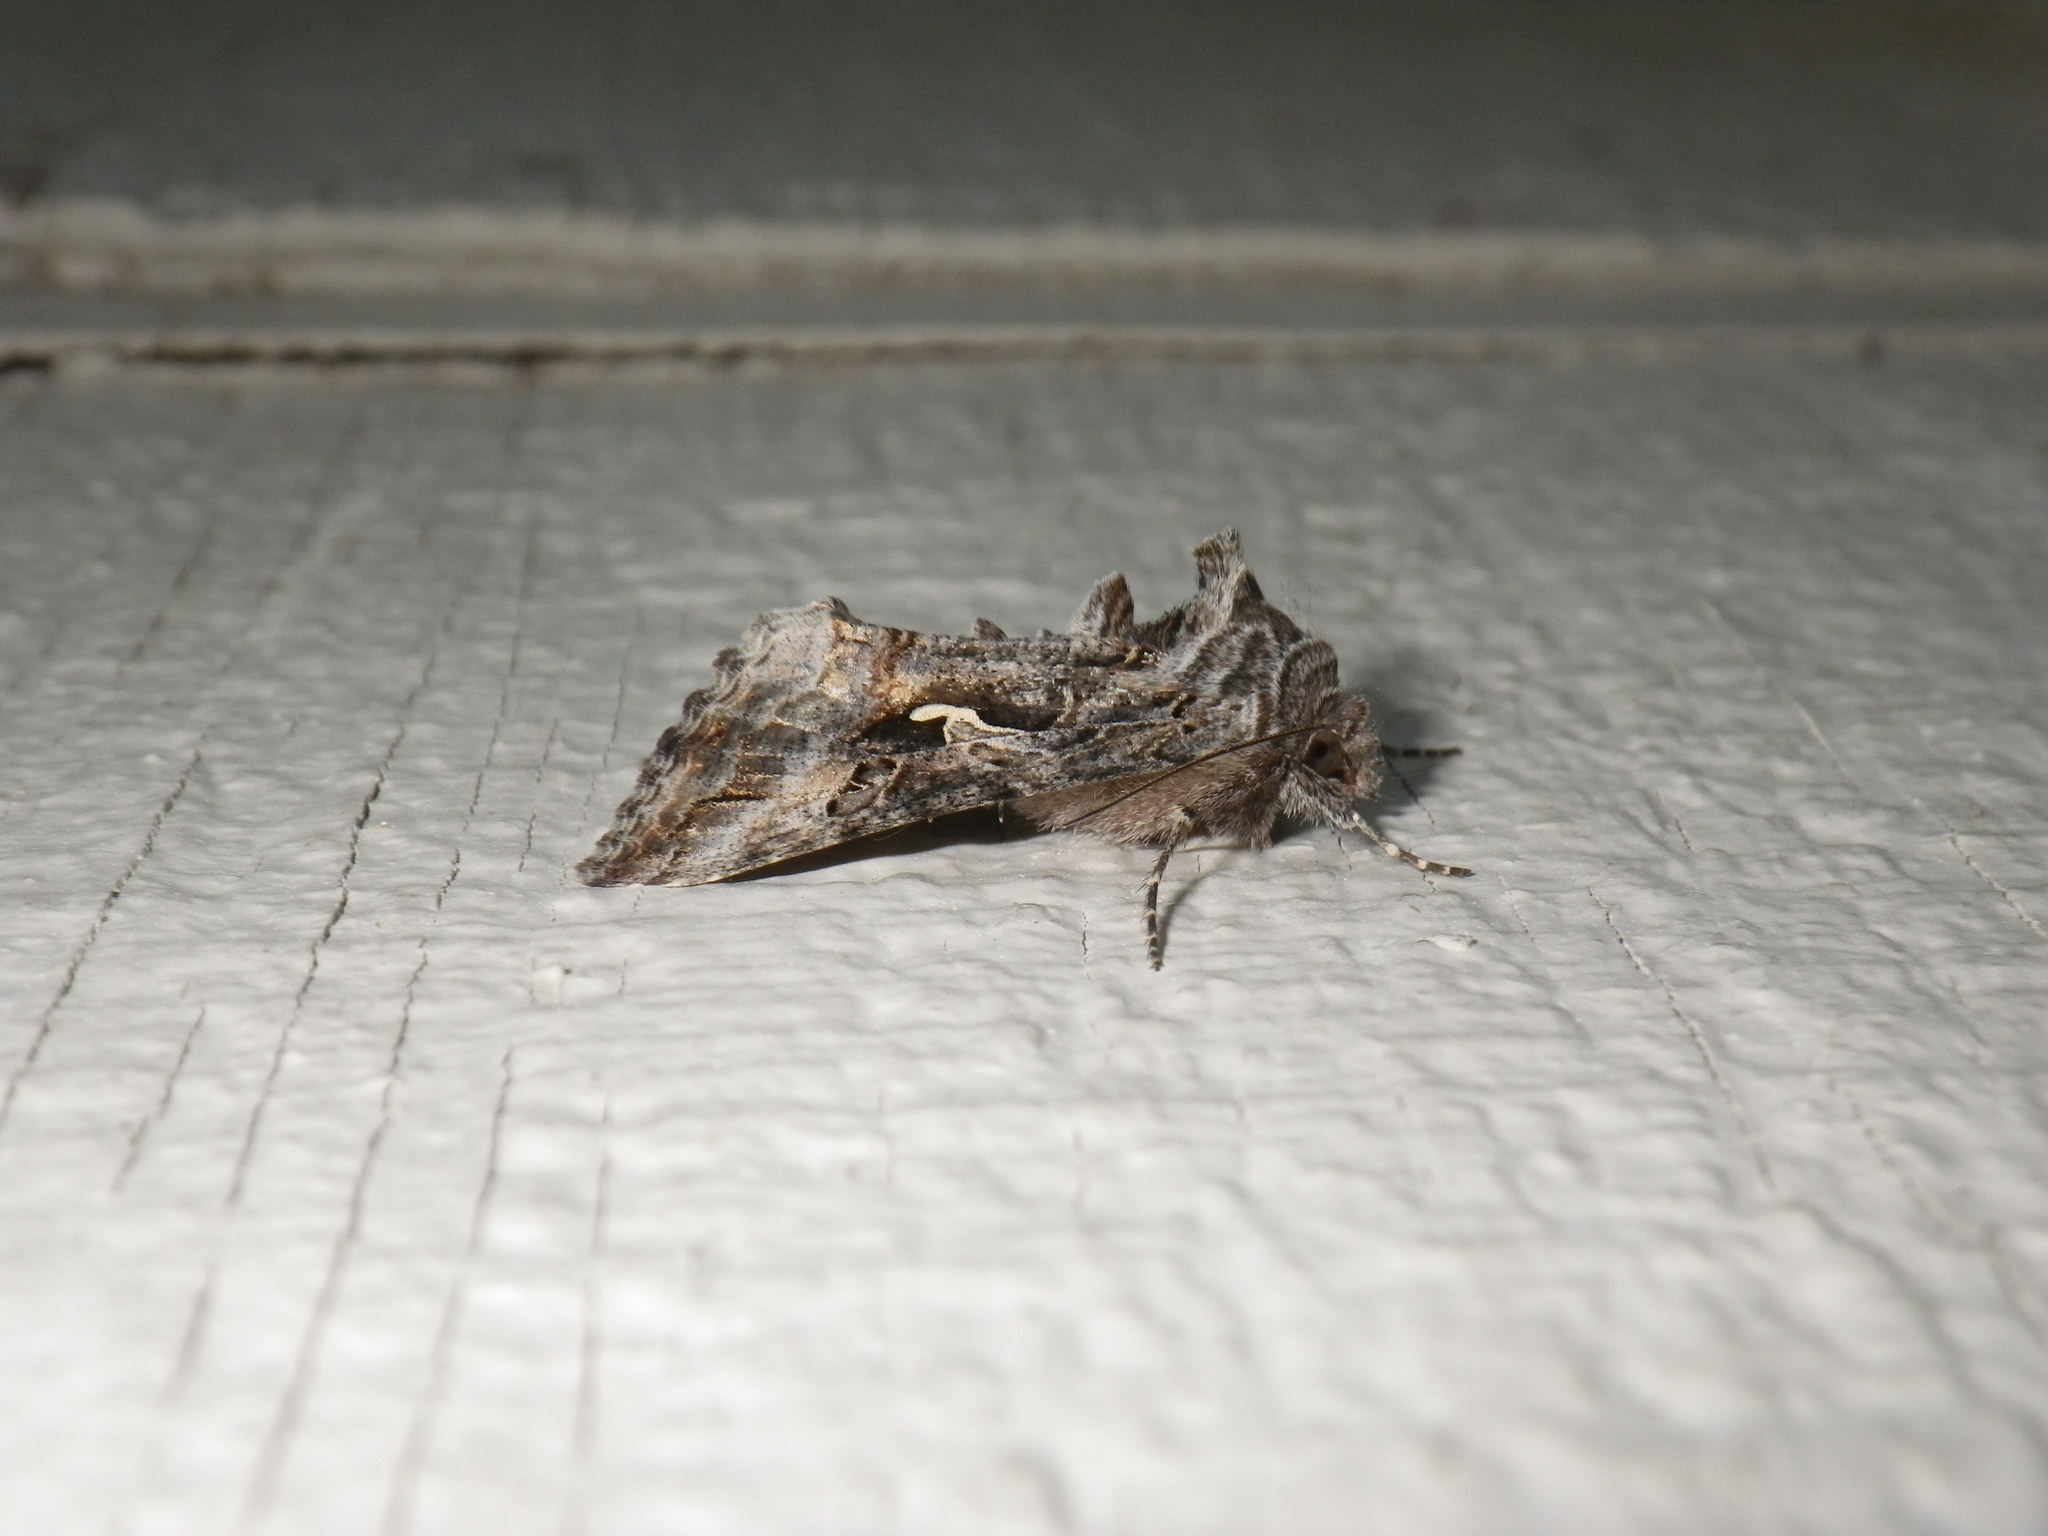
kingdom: Animalia
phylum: Arthropoda
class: Insecta
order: Lepidoptera
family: Noctuidae
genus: Autographa
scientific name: Autographa californica
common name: Alfalfa looper
